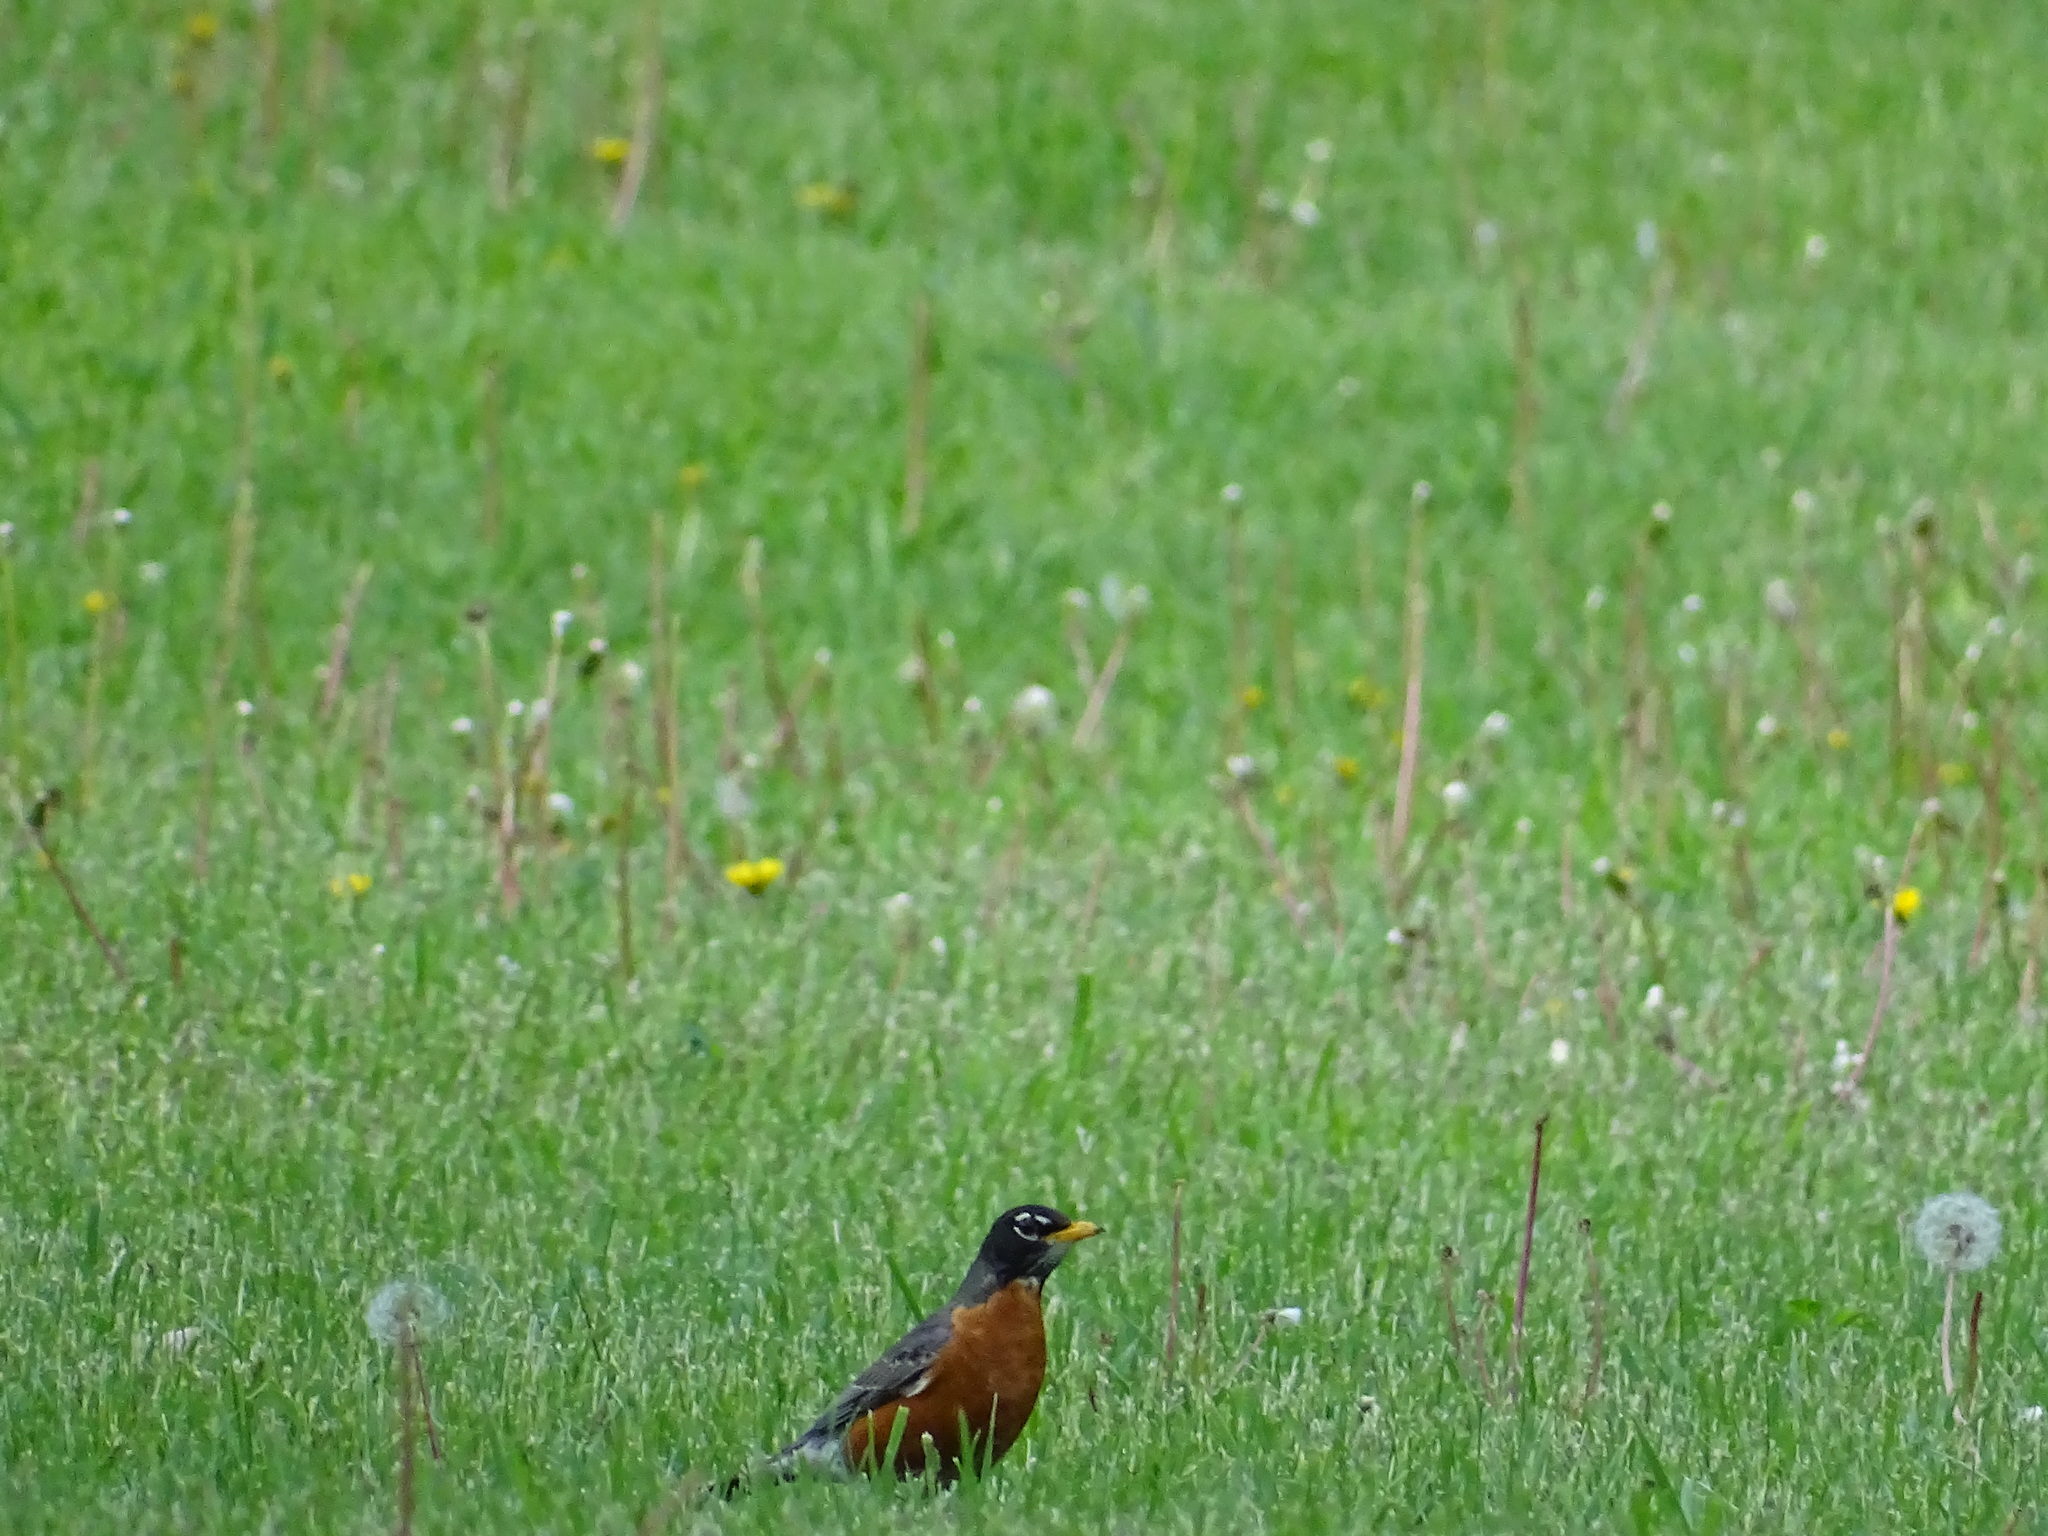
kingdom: Animalia
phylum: Chordata
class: Aves
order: Passeriformes
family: Turdidae
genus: Turdus
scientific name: Turdus migratorius
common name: American robin
